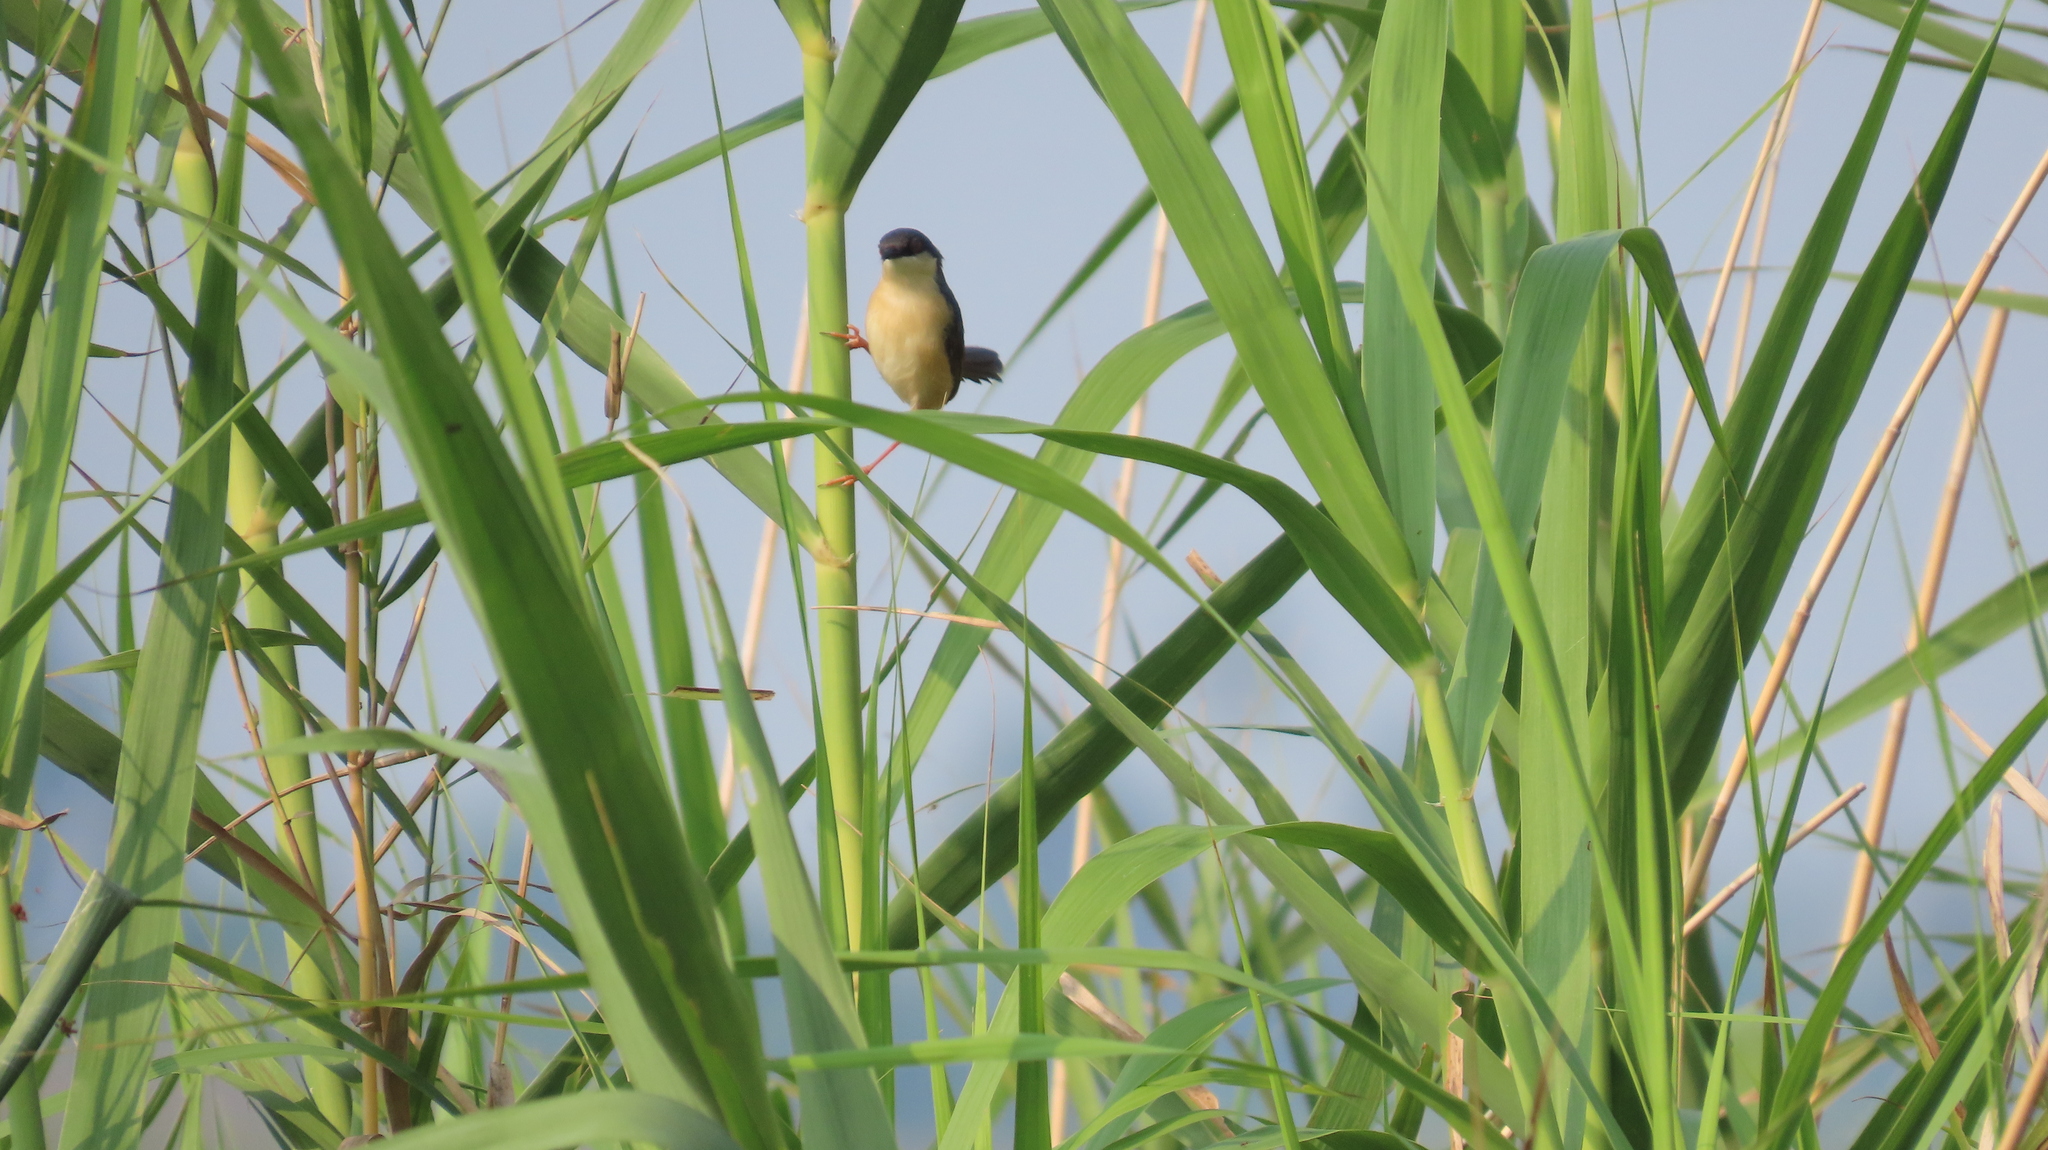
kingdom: Animalia
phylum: Chordata
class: Aves
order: Passeriformes
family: Cisticolidae
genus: Prinia
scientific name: Prinia socialis
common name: Ashy prinia
